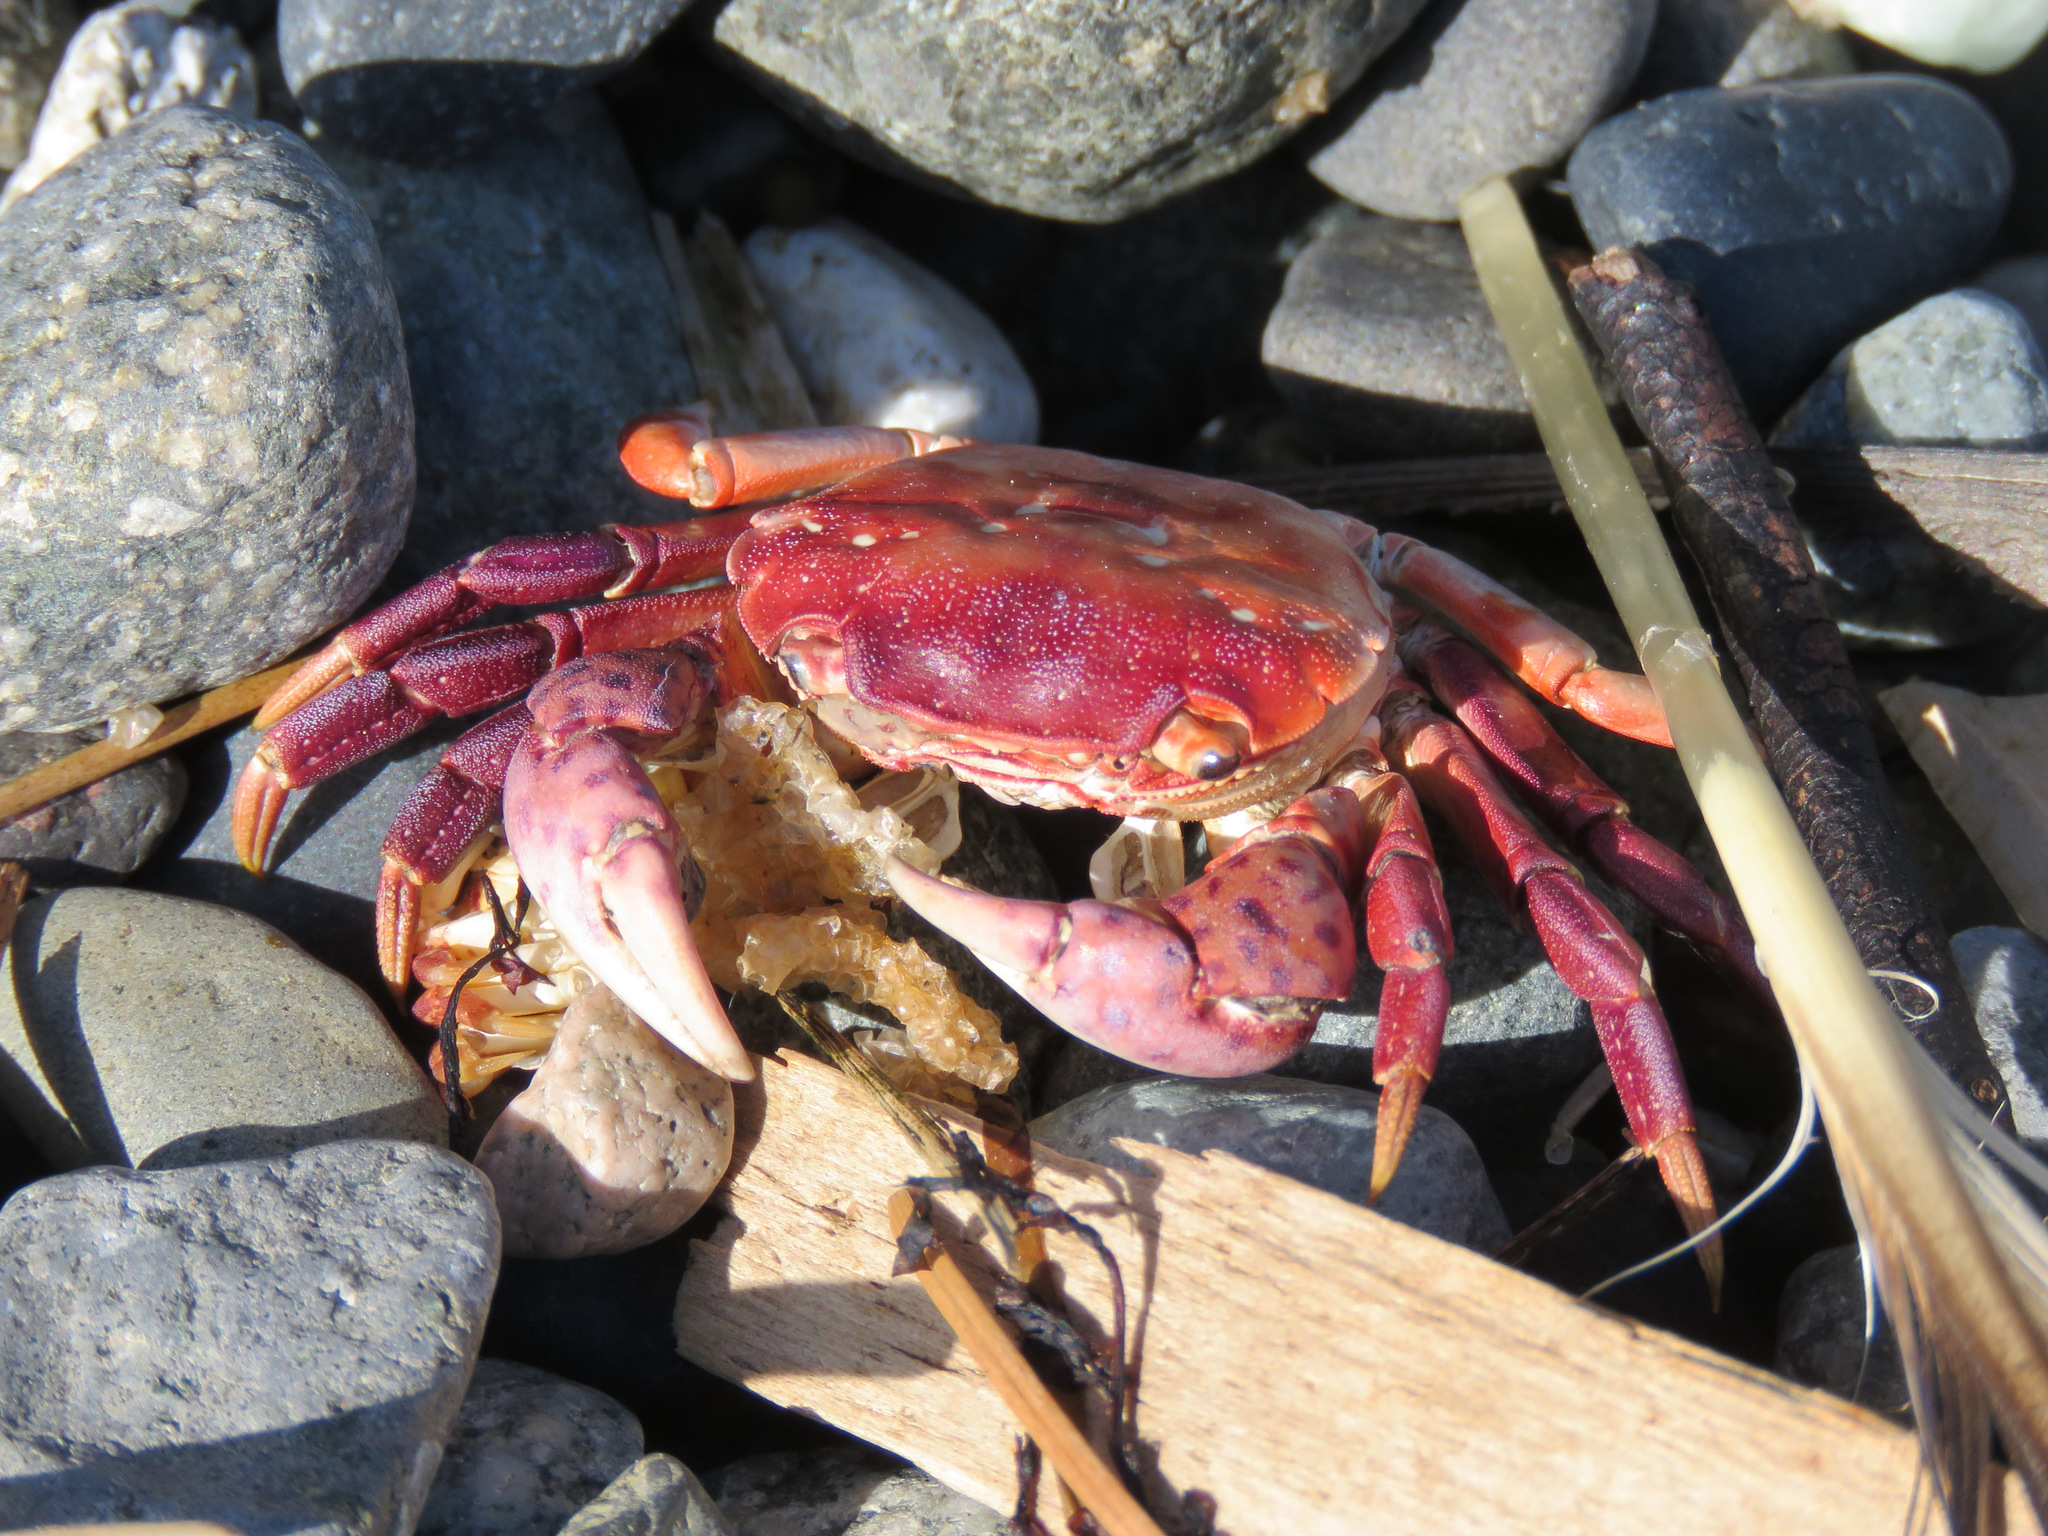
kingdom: Animalia
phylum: Arthropoda
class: Malacostraca
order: Decapoda
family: Varunidae
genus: Hemigrapsus
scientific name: Hemigrapsus nudus
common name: Purple shore crab
